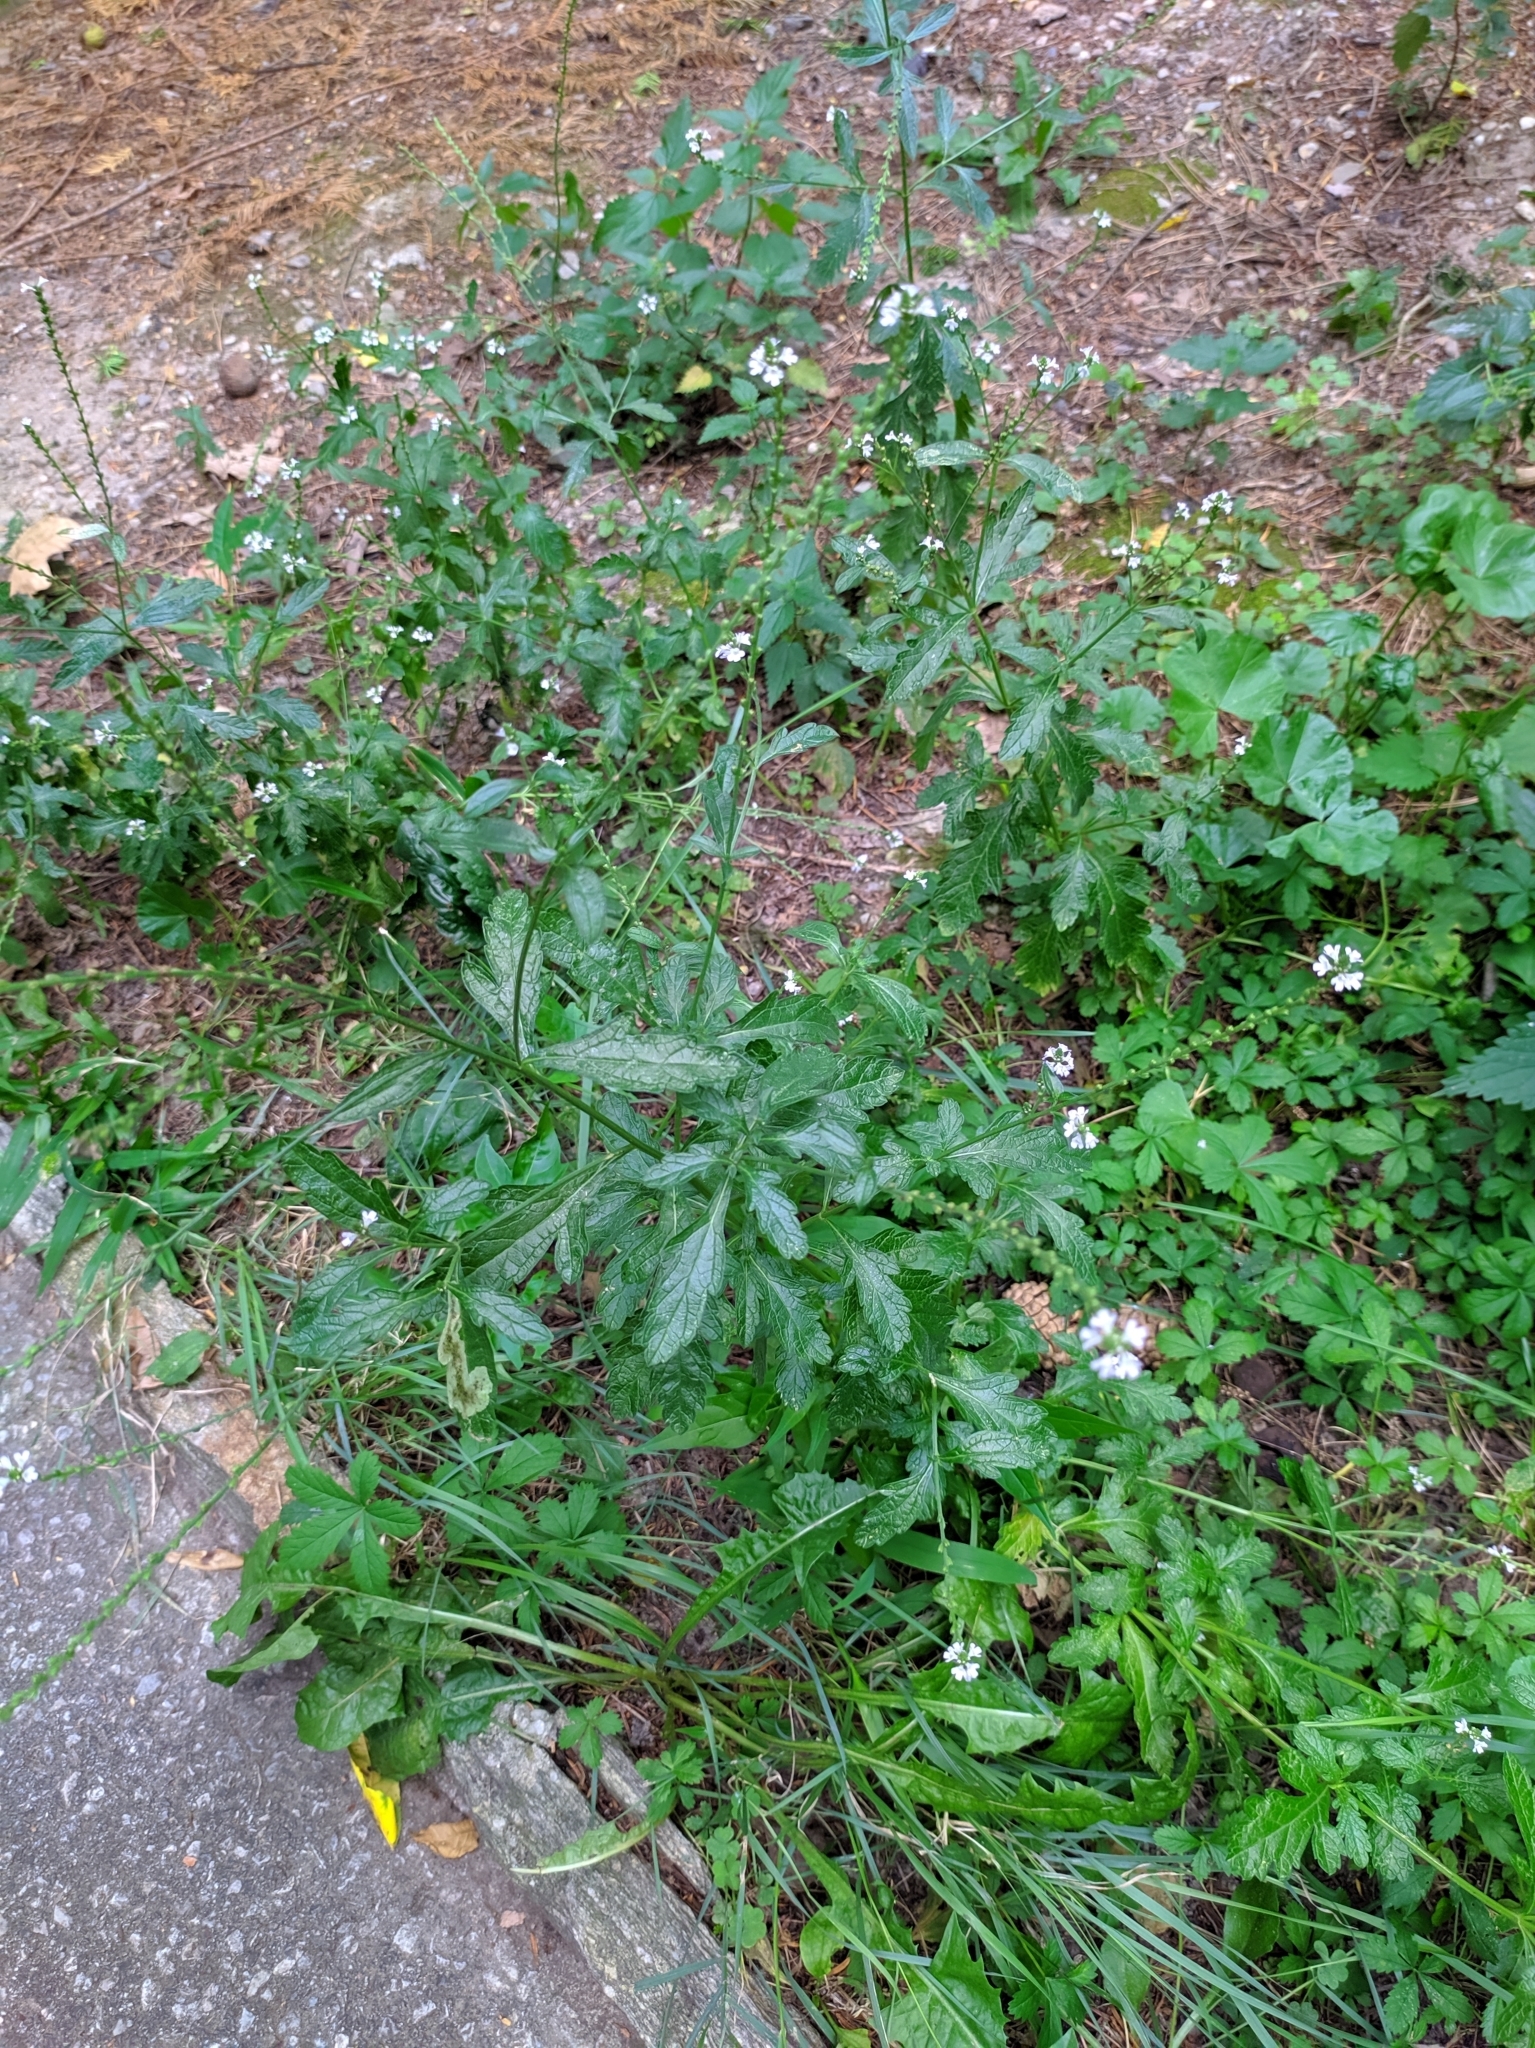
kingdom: Plantae
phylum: Tracheophyta
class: Magnoliopsida
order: Lamiales
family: Verbenaceae
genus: Verbena
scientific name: Verbena officinalis
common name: Vervain
